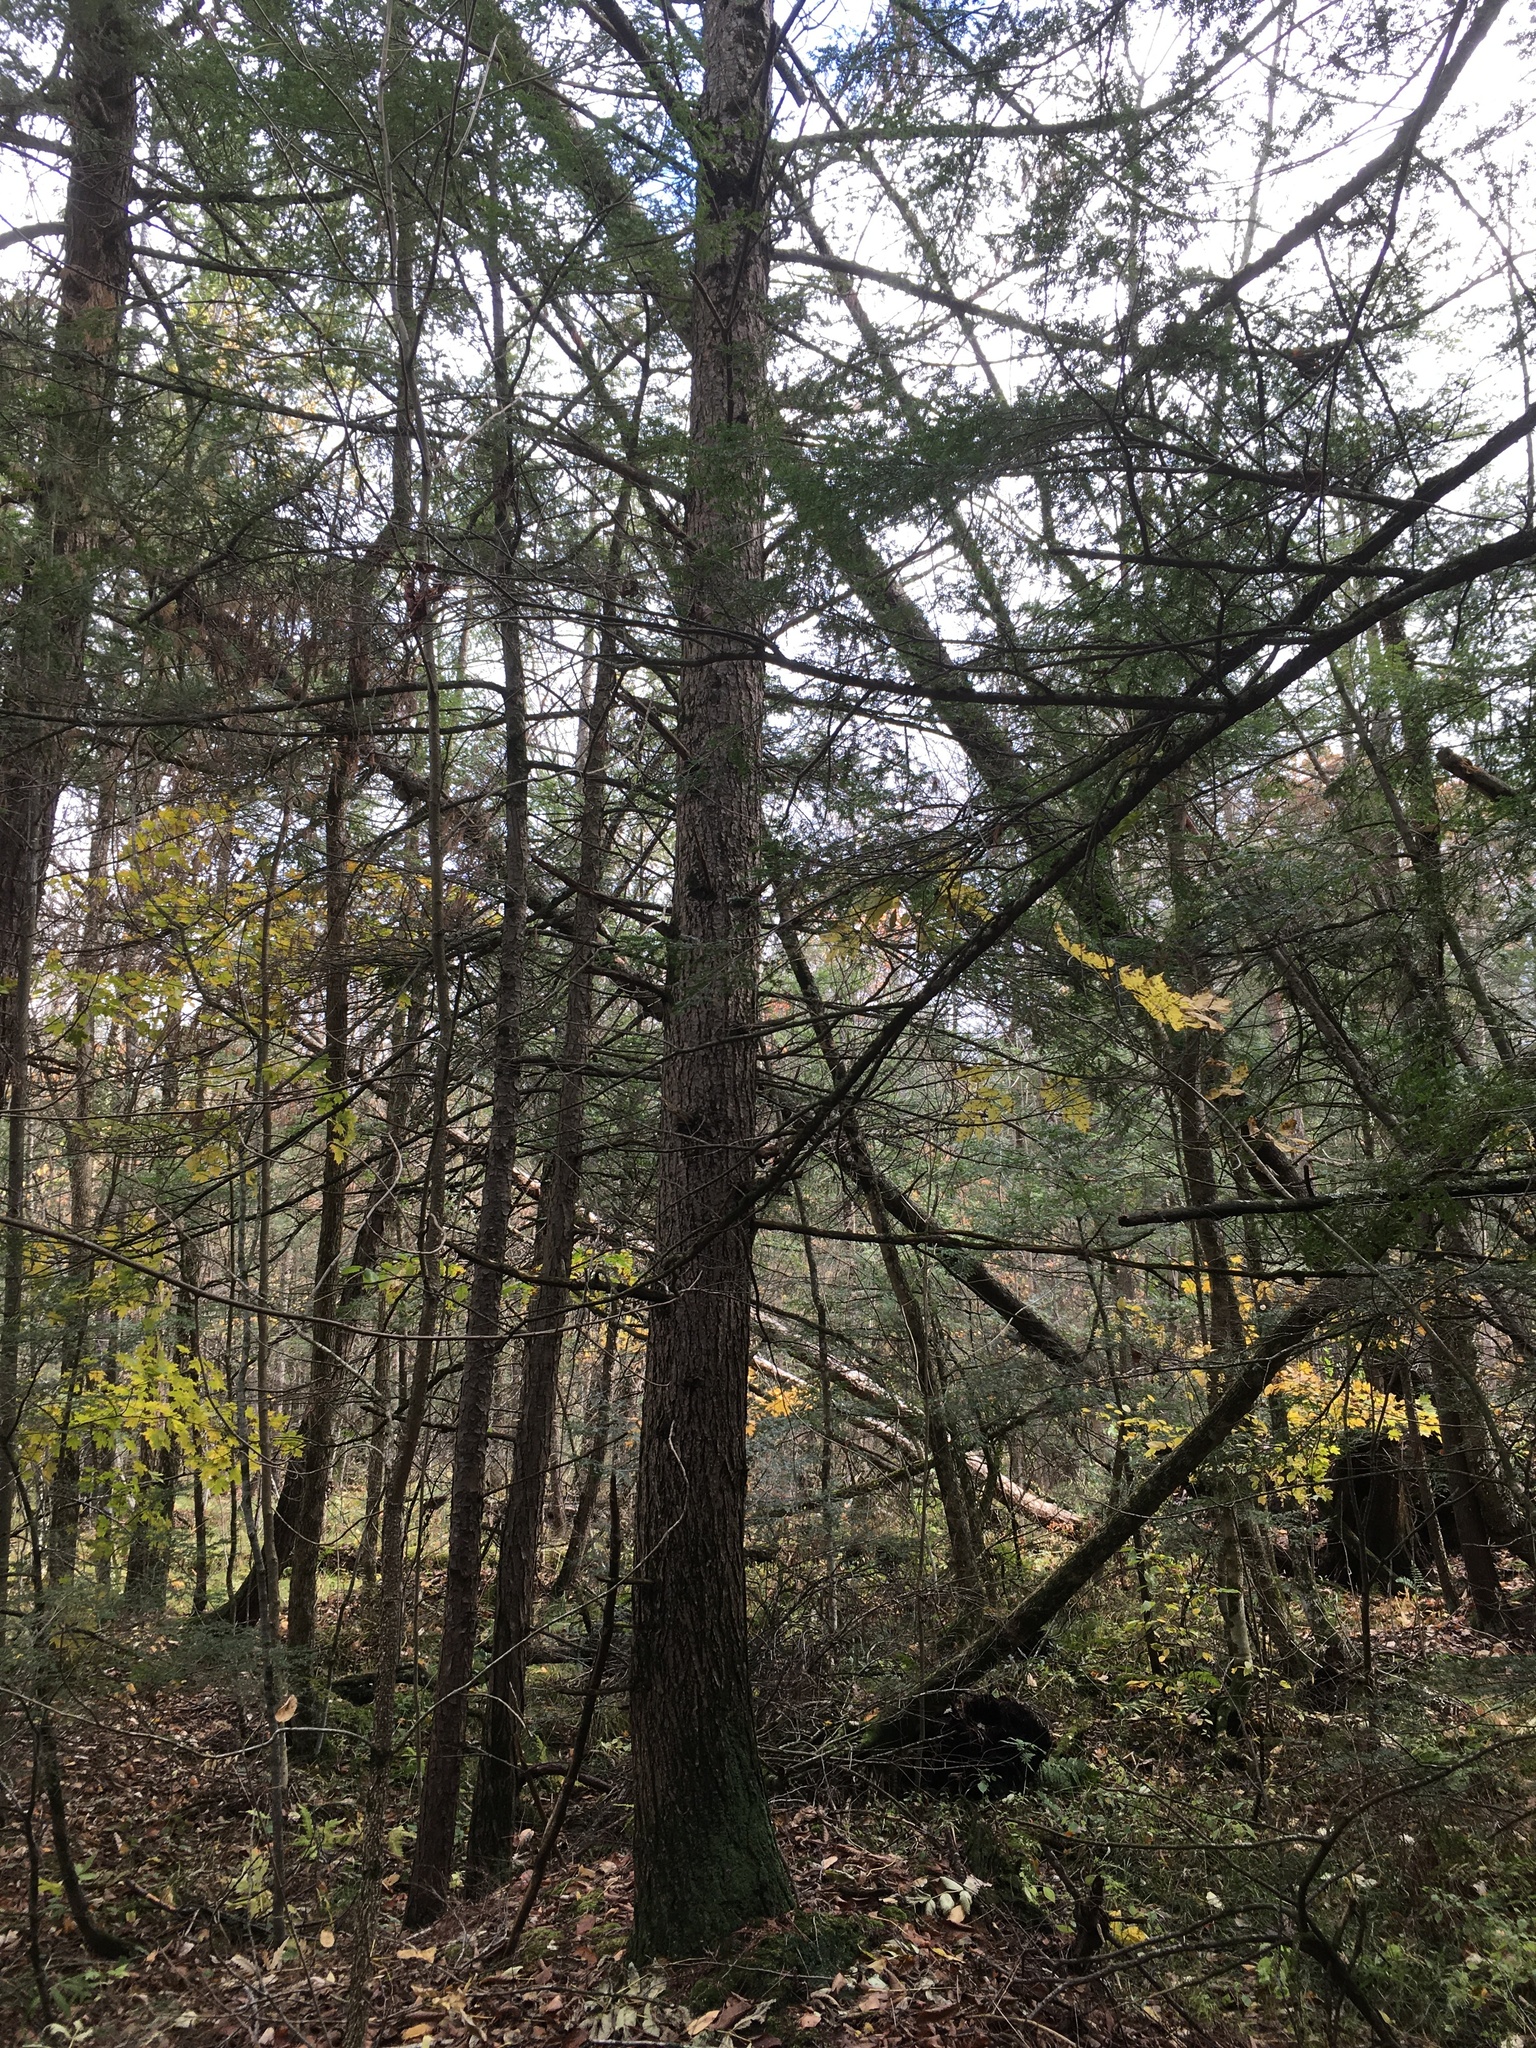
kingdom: Plantae
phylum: Tracheophyta
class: Pinopsida
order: Pinales
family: Pinaceae
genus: Tsuga
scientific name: Tsuga canadensis
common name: Eastern hemlock
